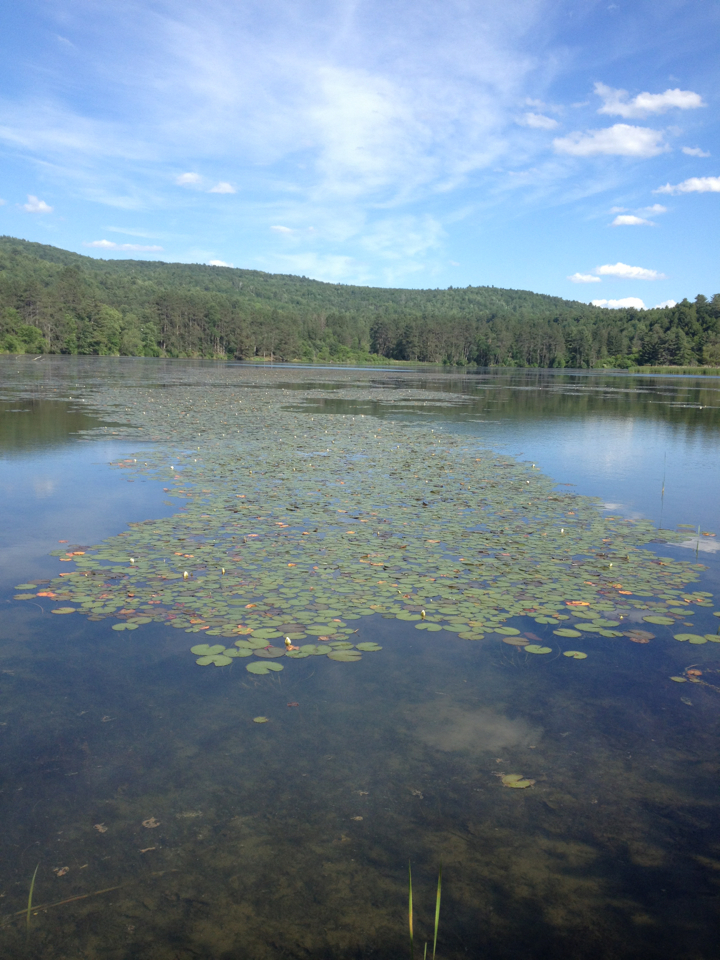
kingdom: Plantae
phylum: Tracheophyta
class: Magnoliopsida
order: Nymphaeales
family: Nymphaeaceae
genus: Nymphaea
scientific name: Nymphaea odorata
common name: Fragrant water-lily
